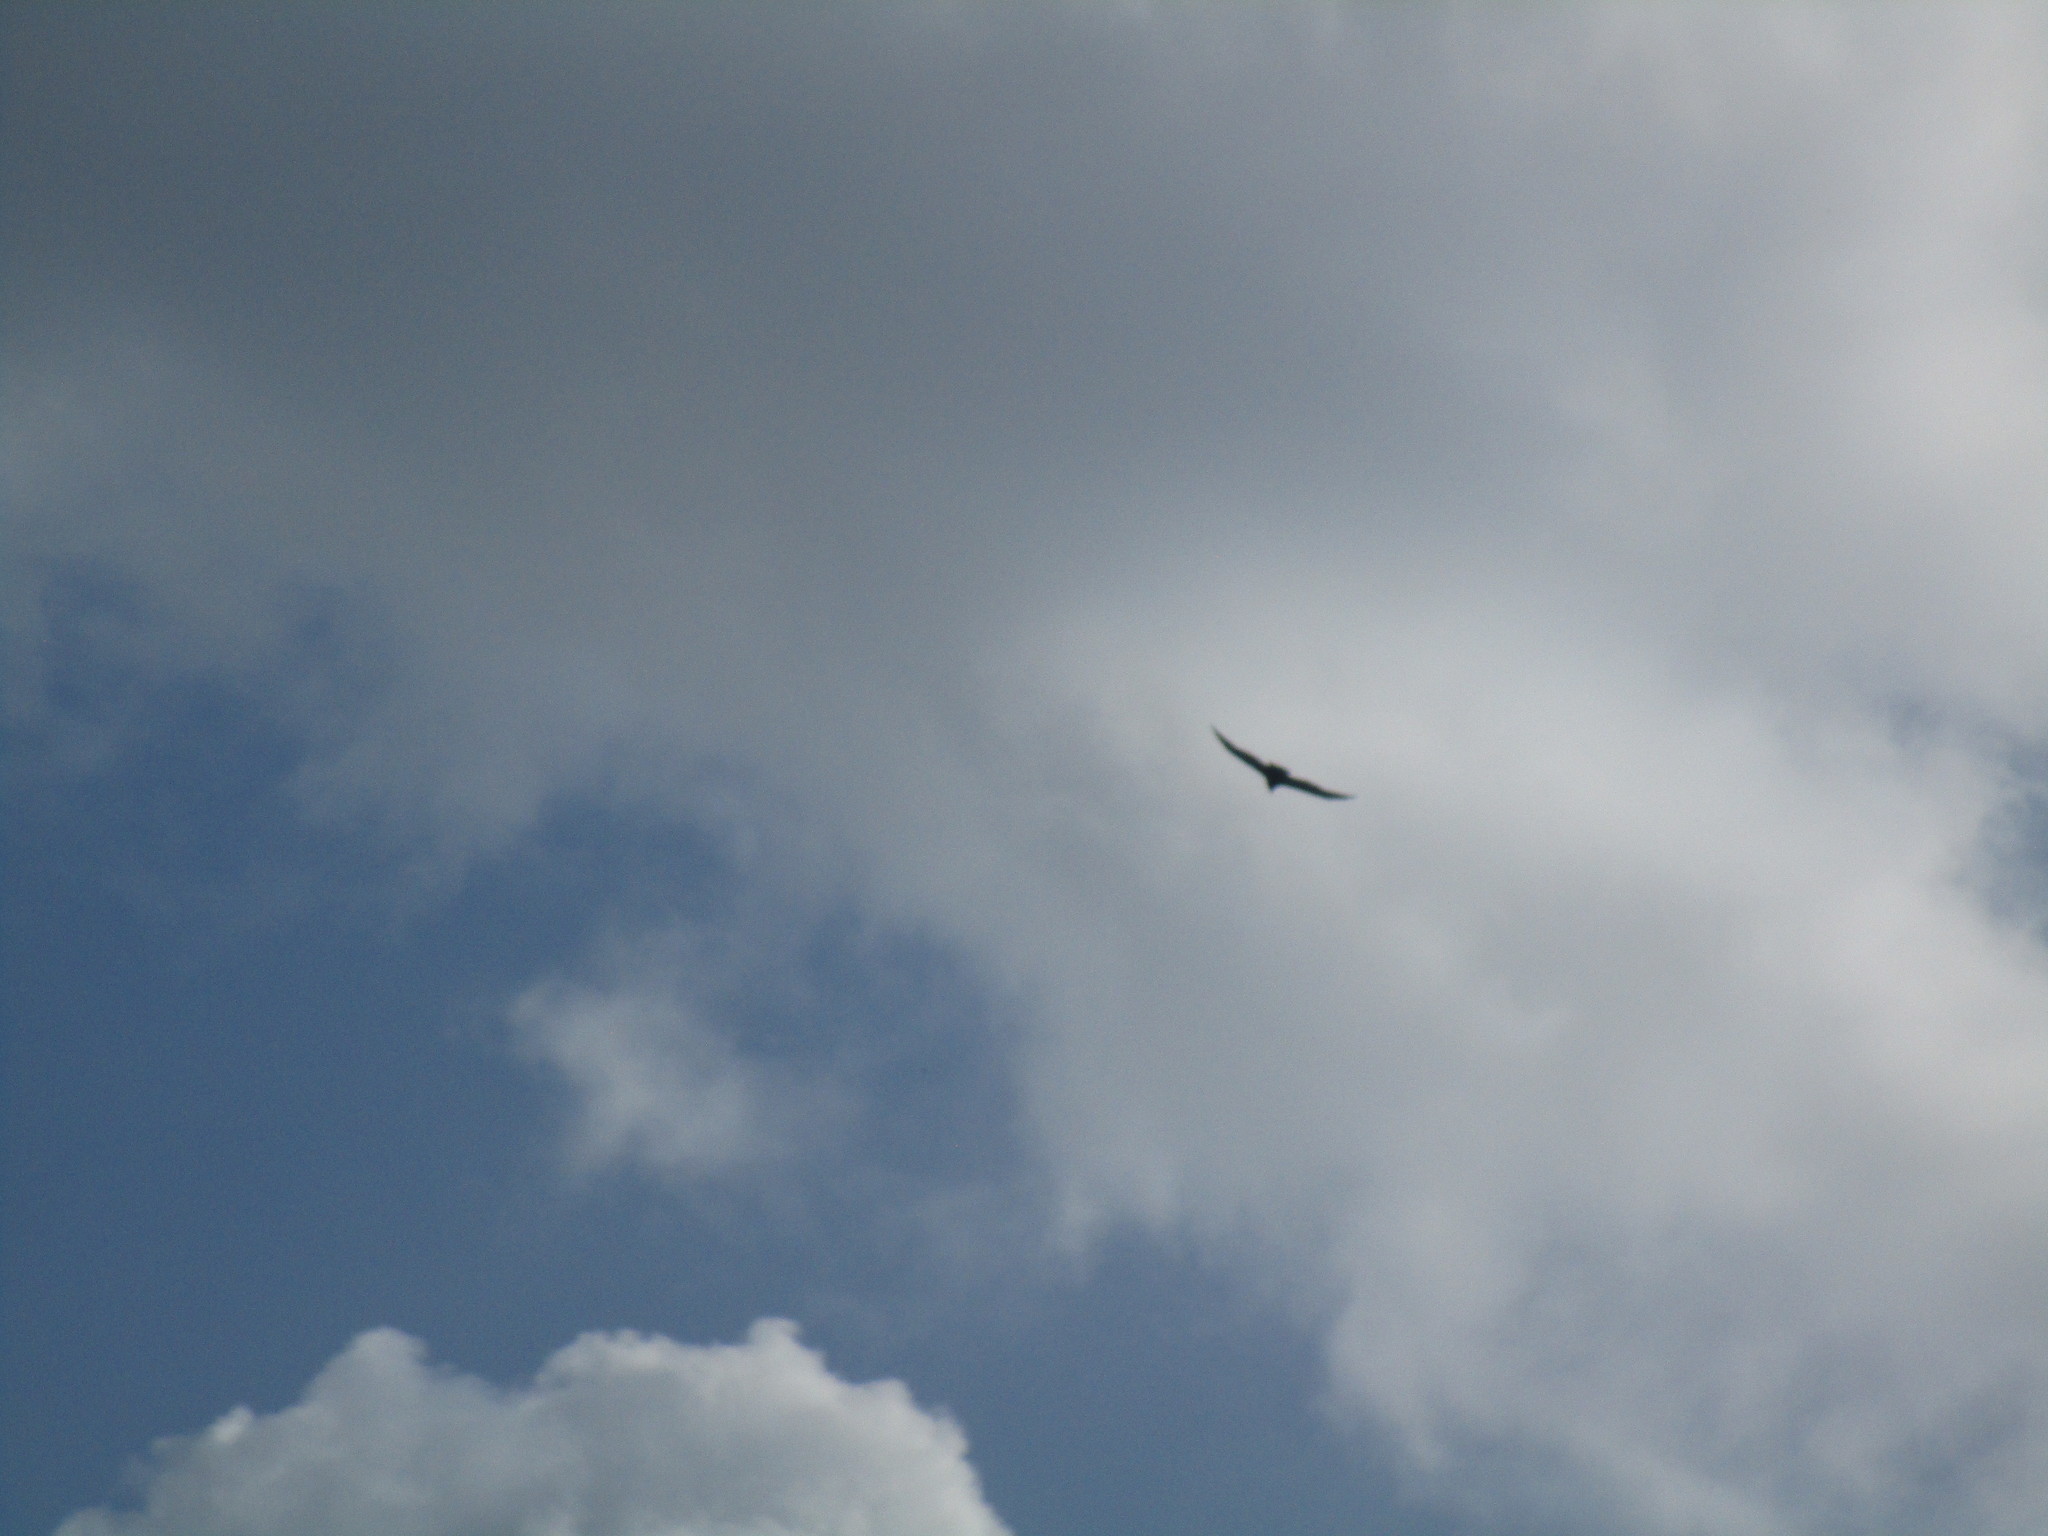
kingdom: Animalia
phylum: Chordata
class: Aves
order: Accipitriformes
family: Cathartidae
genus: Cathartes
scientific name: Cathartes aura
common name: Turkey vulture
